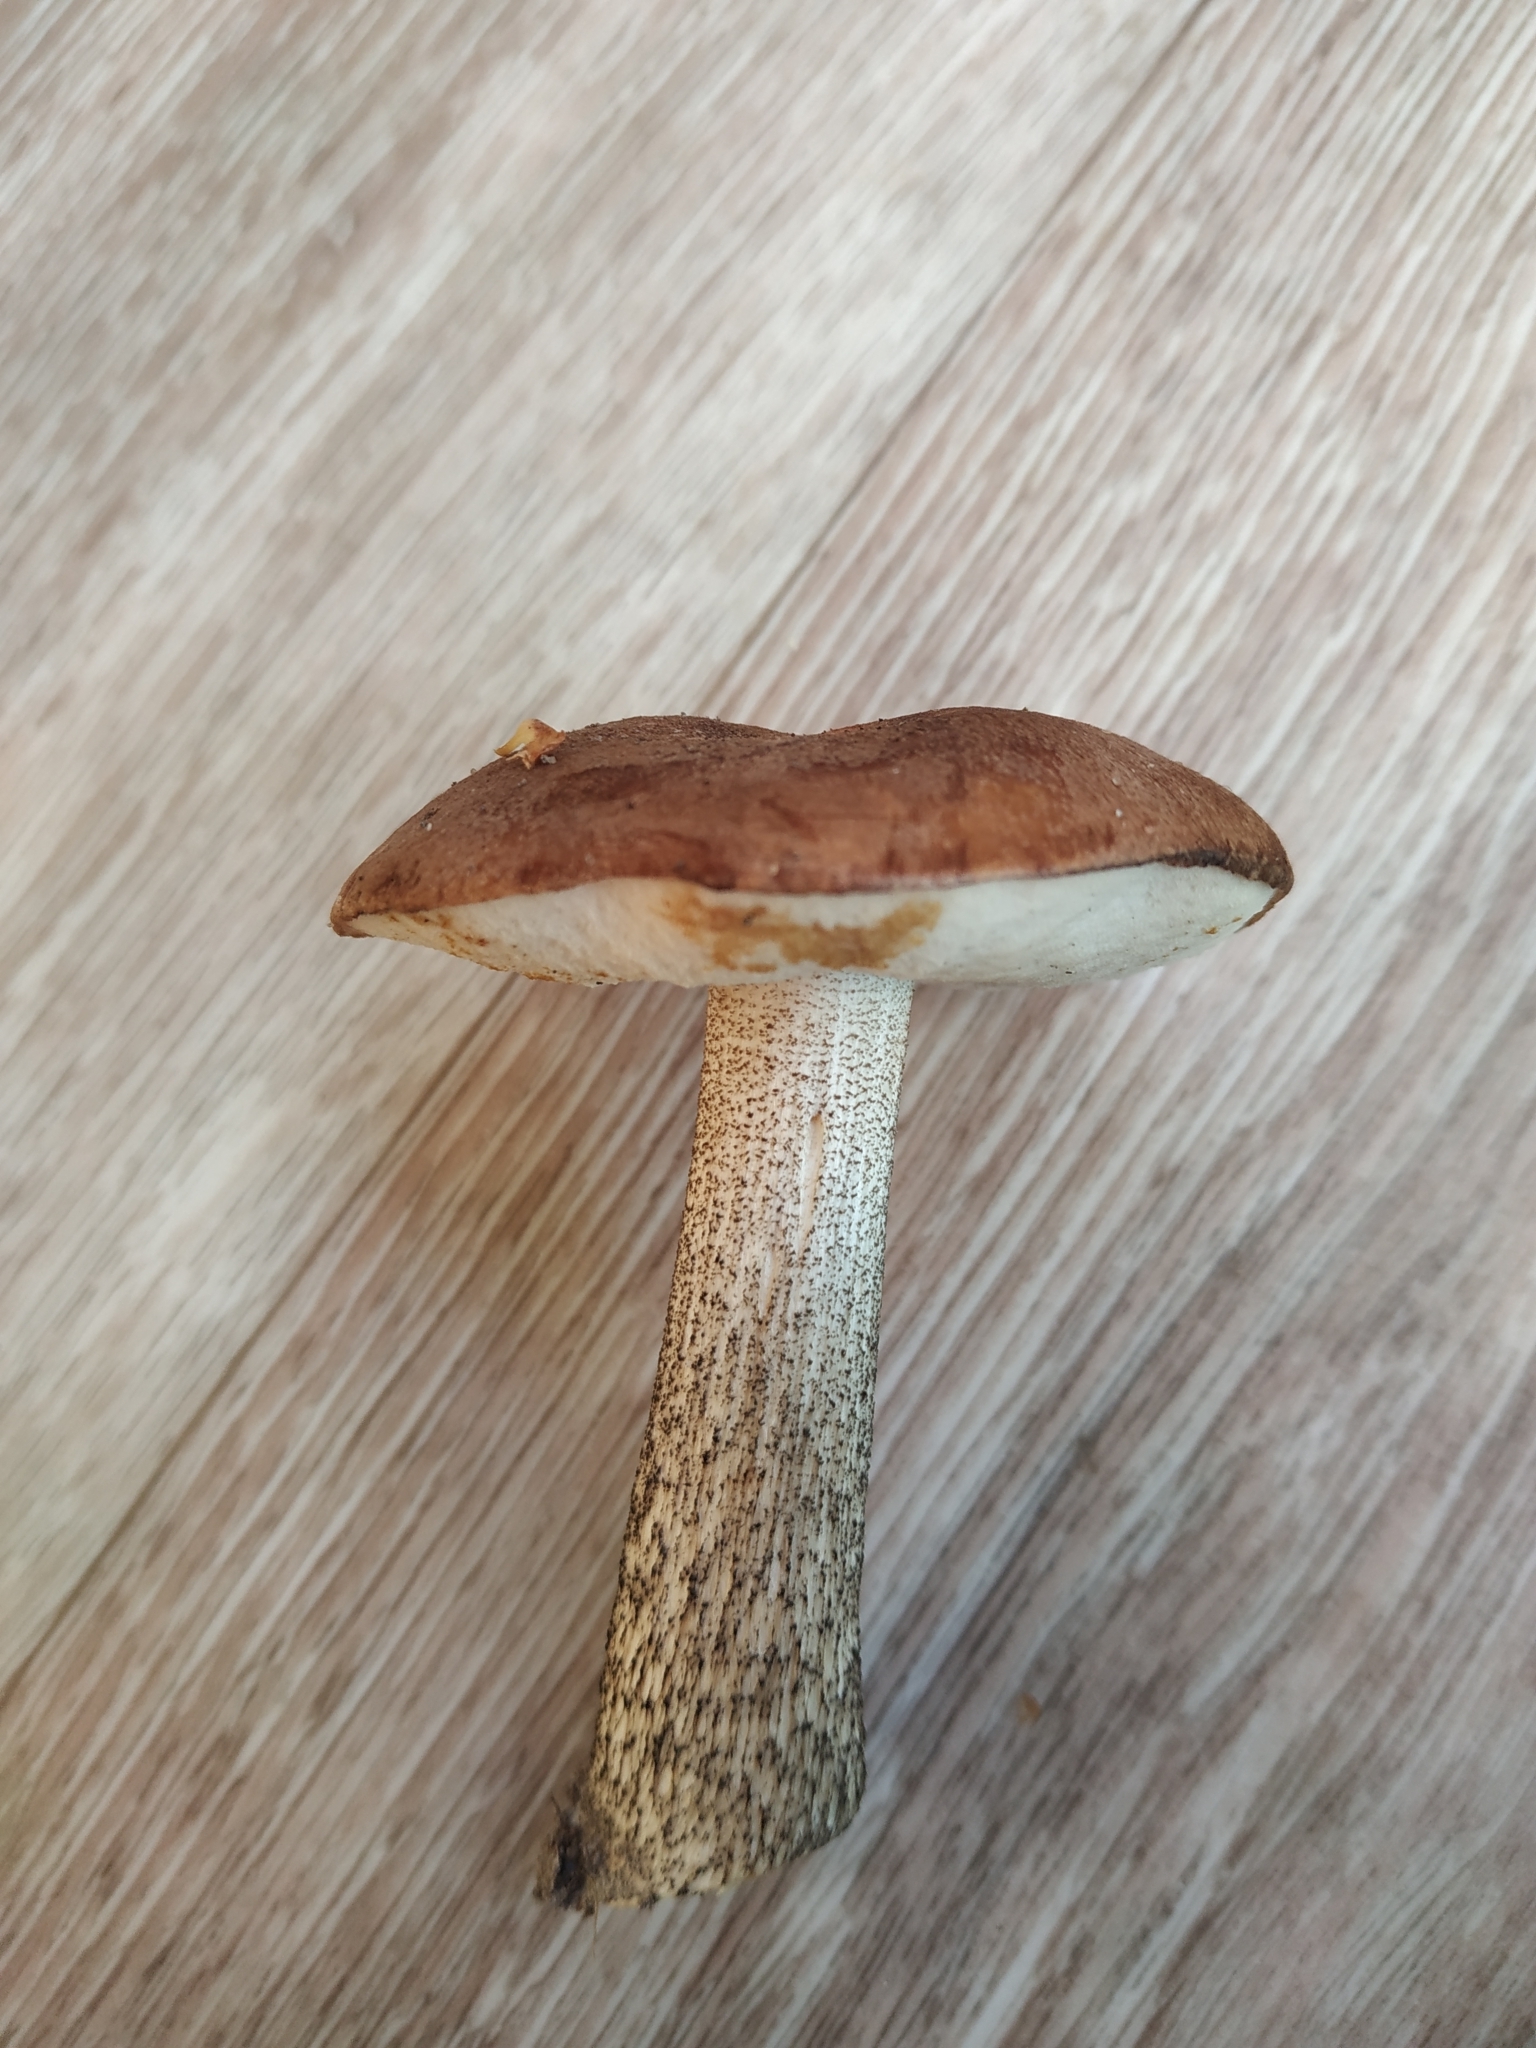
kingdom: Fungi
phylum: Basidiomycota
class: Agaricomycetes
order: Boletales
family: Boletaceae
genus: Leccinum
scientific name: Leccinum scabrum
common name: Blushing bolete
